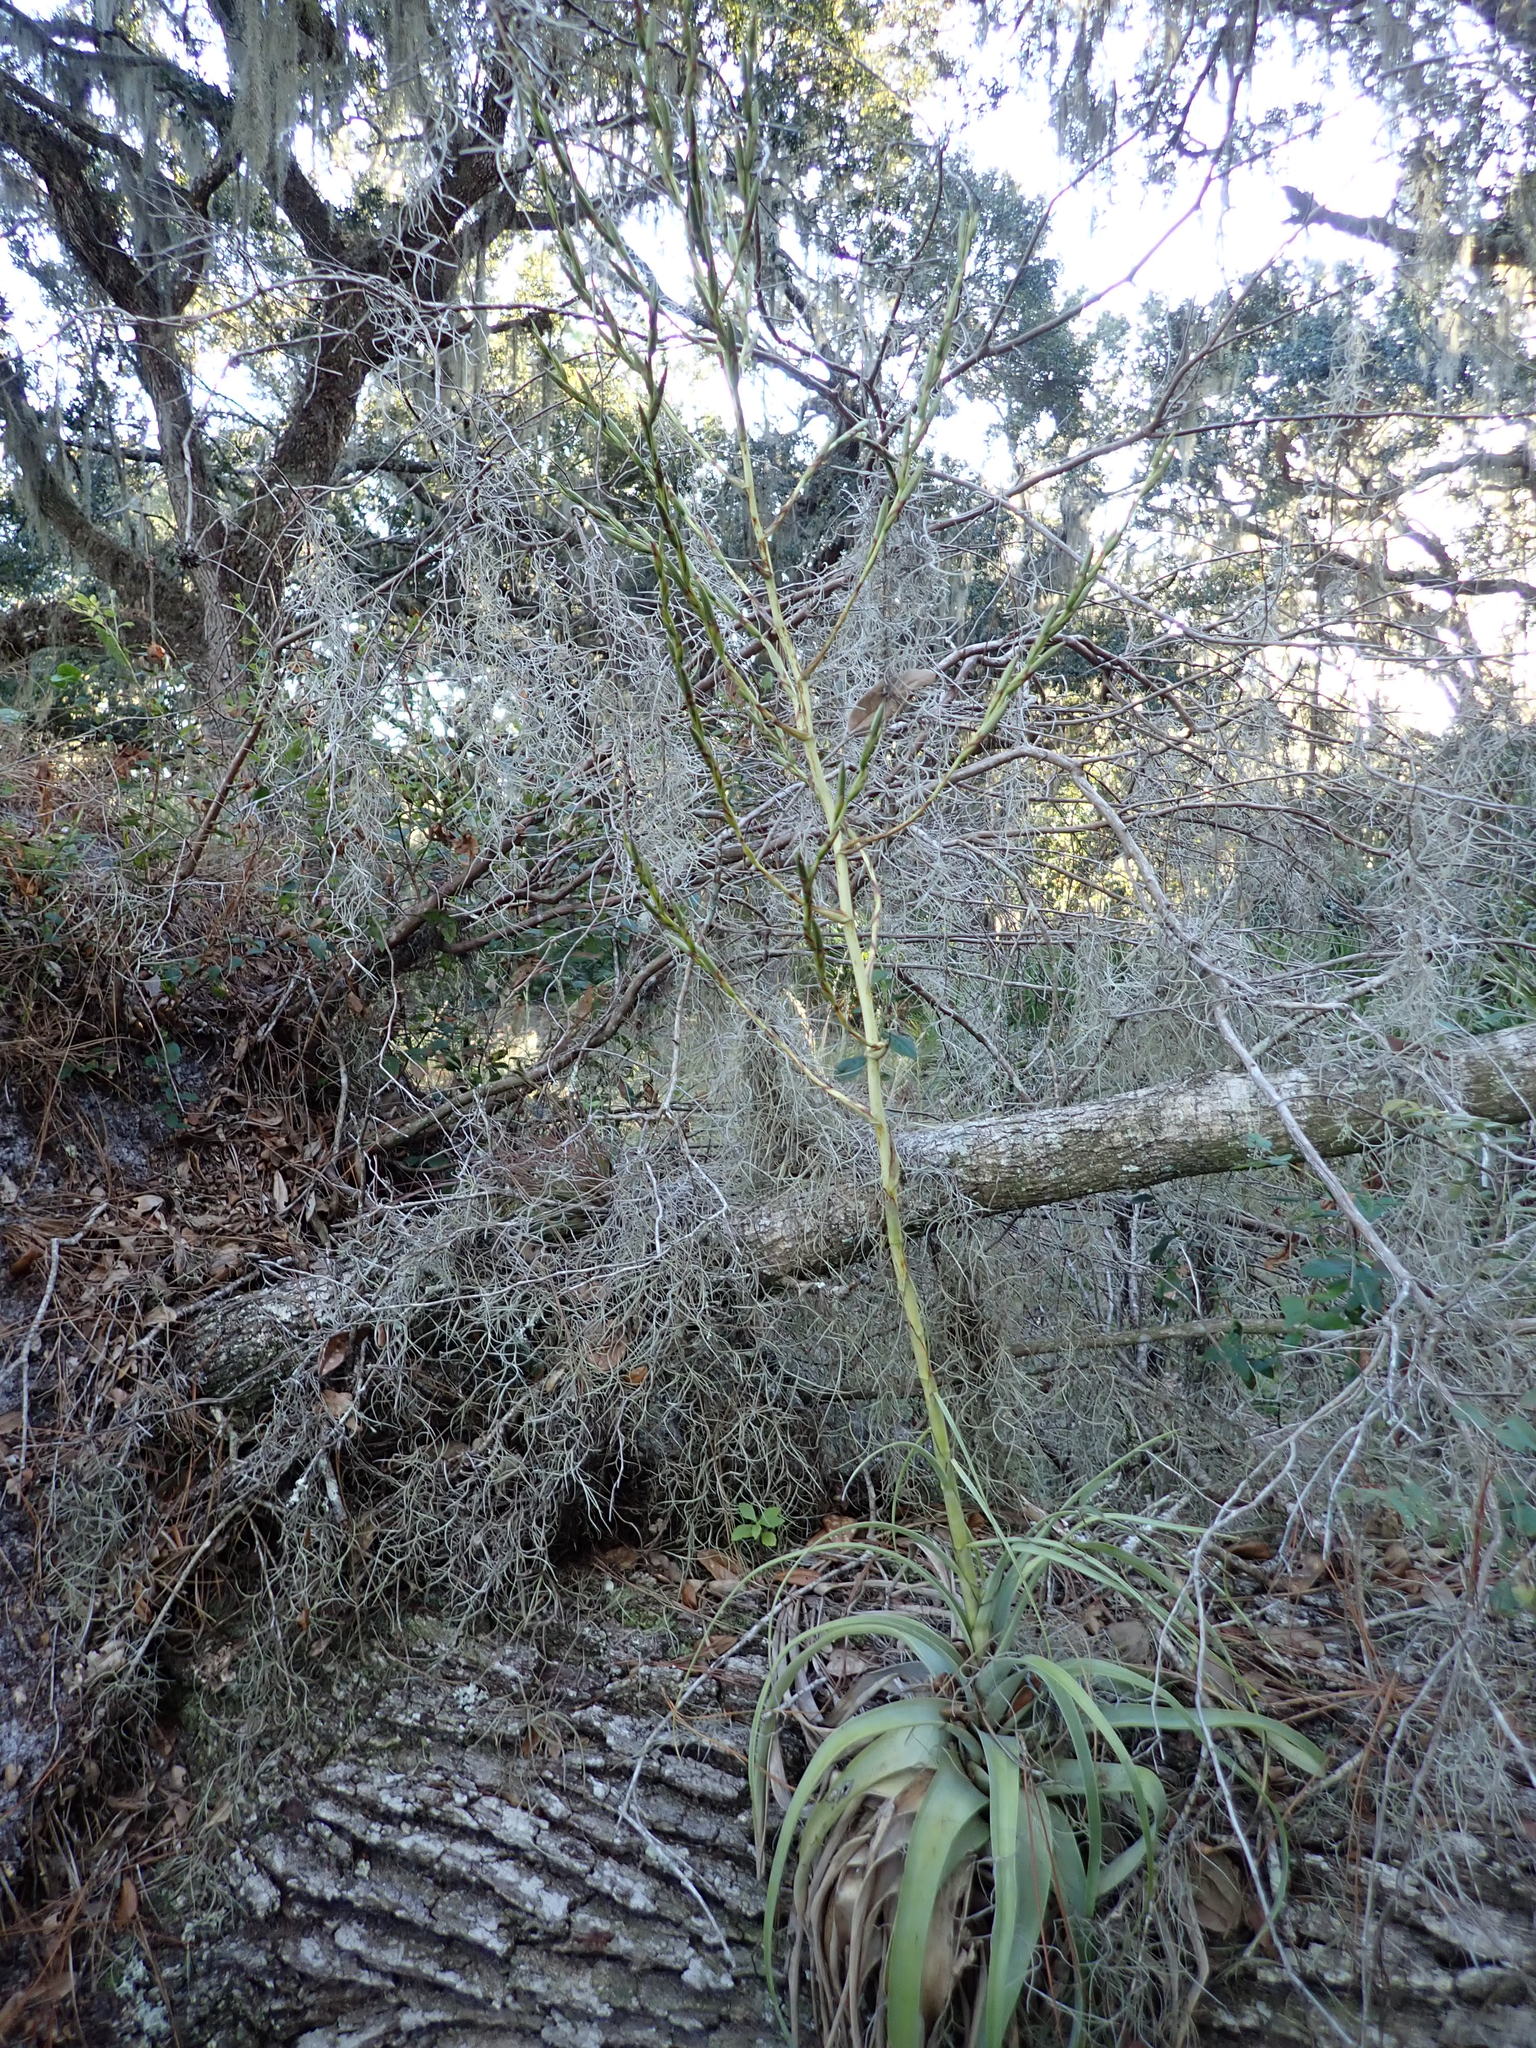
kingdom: Plantae
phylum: Tracheophyta
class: Liliopsida
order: Poales
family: Bromeliaceae
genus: Tillandsia
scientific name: Tillandsia utriculata
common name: Wild pine
